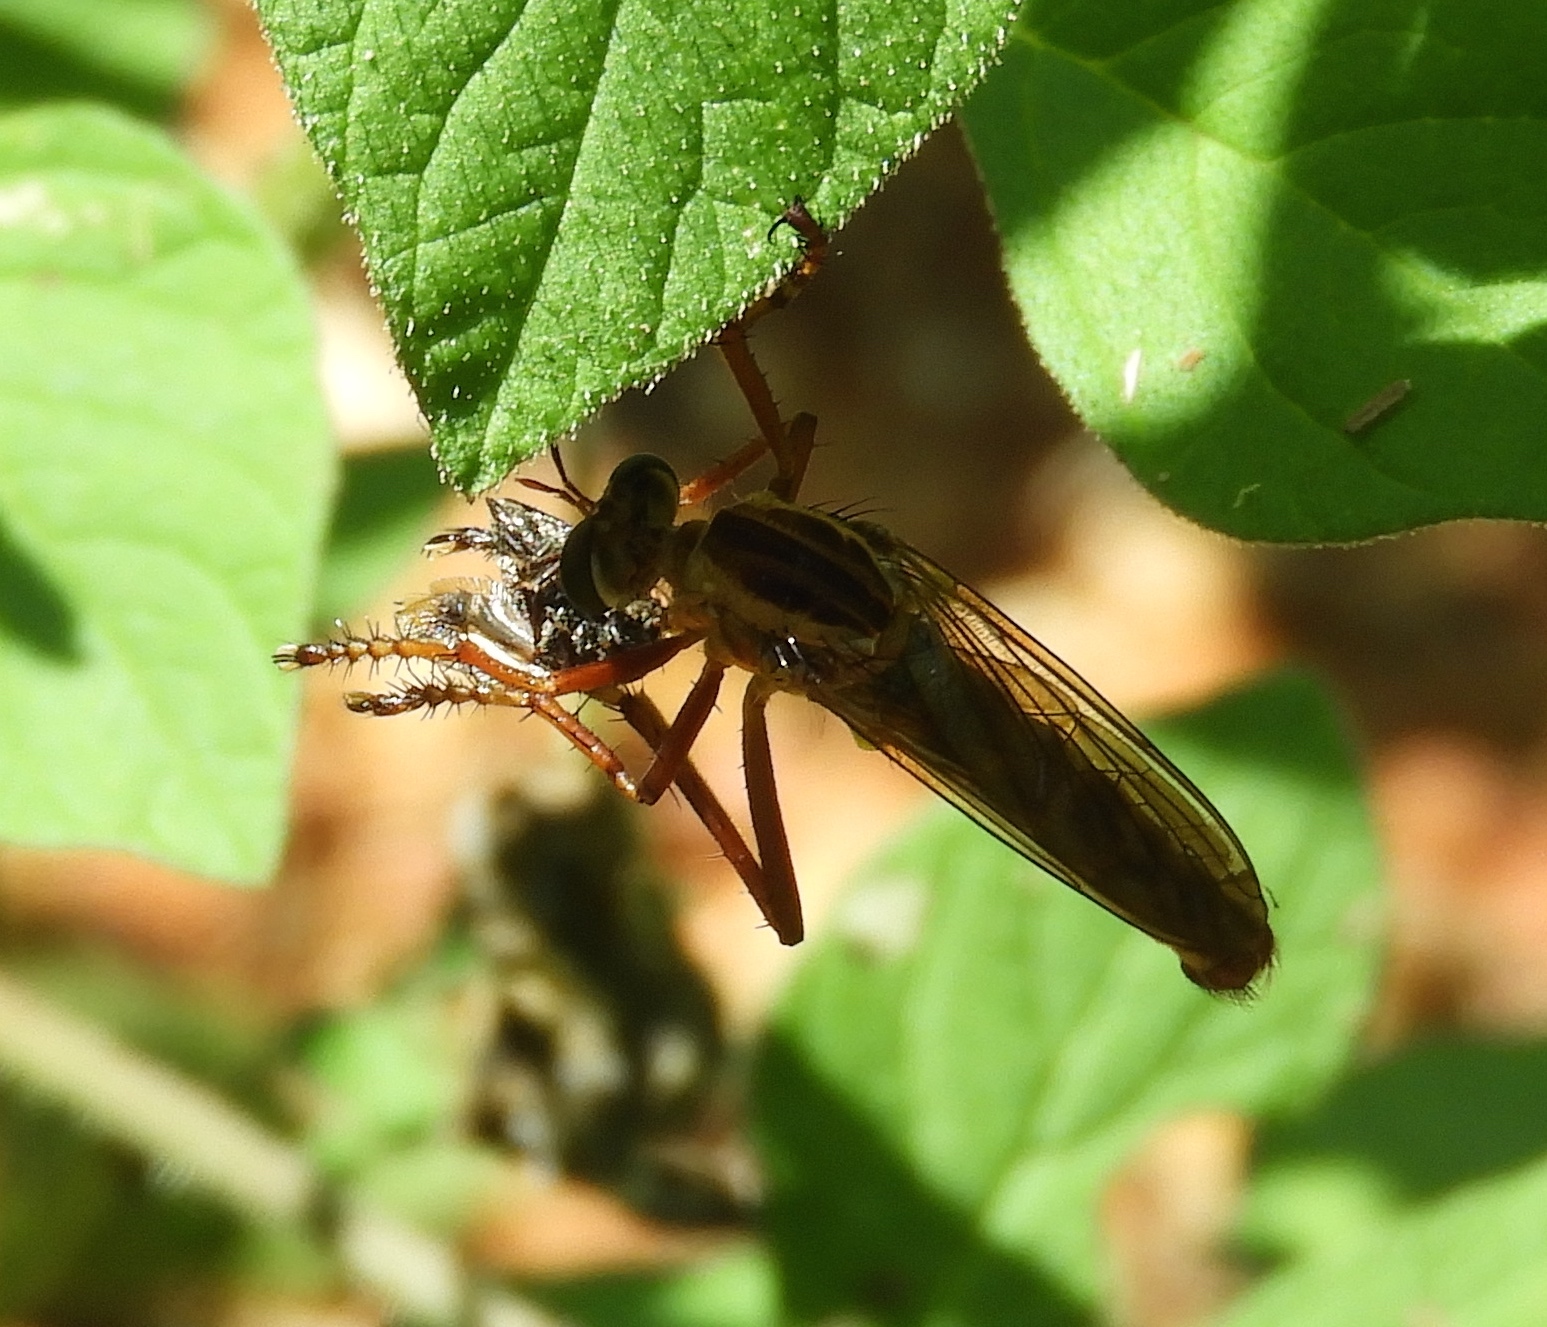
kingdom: Animalia
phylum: Arthropoda
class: Insecta
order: Diptera
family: Asilidae
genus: Diogmites
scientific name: Diogmites
